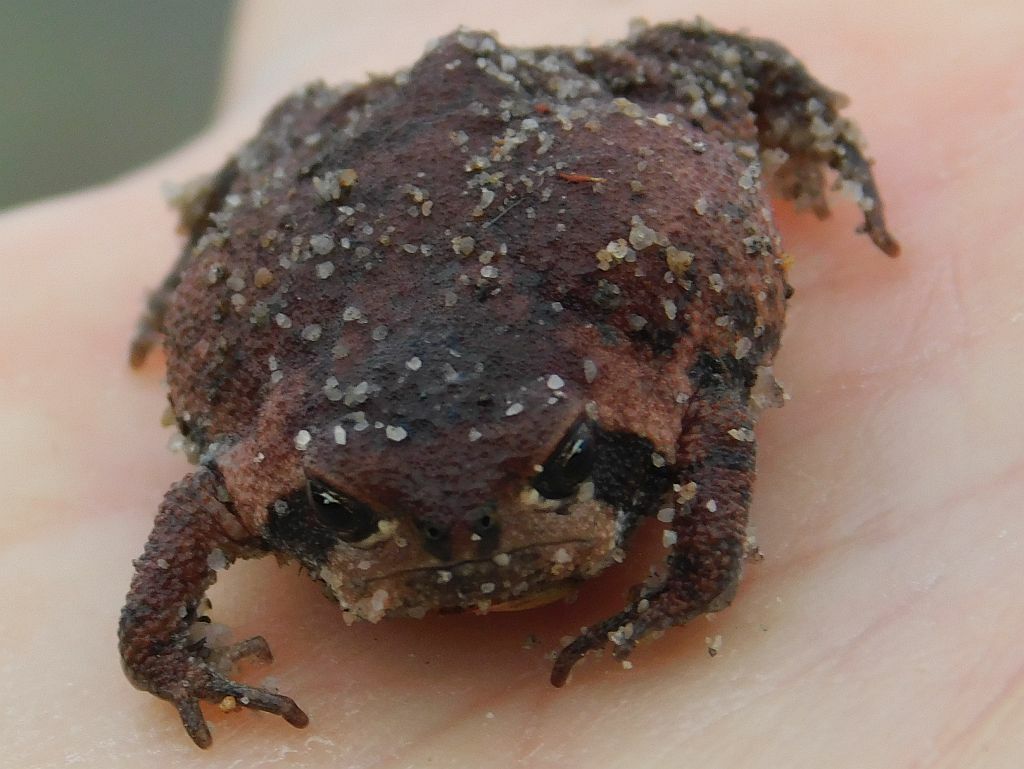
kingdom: Animalia
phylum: Chordata
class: Amphibia
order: Anura
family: Brevicipitidae
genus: Breviceps
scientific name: Breviceps montanus
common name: Mountain rain frog
